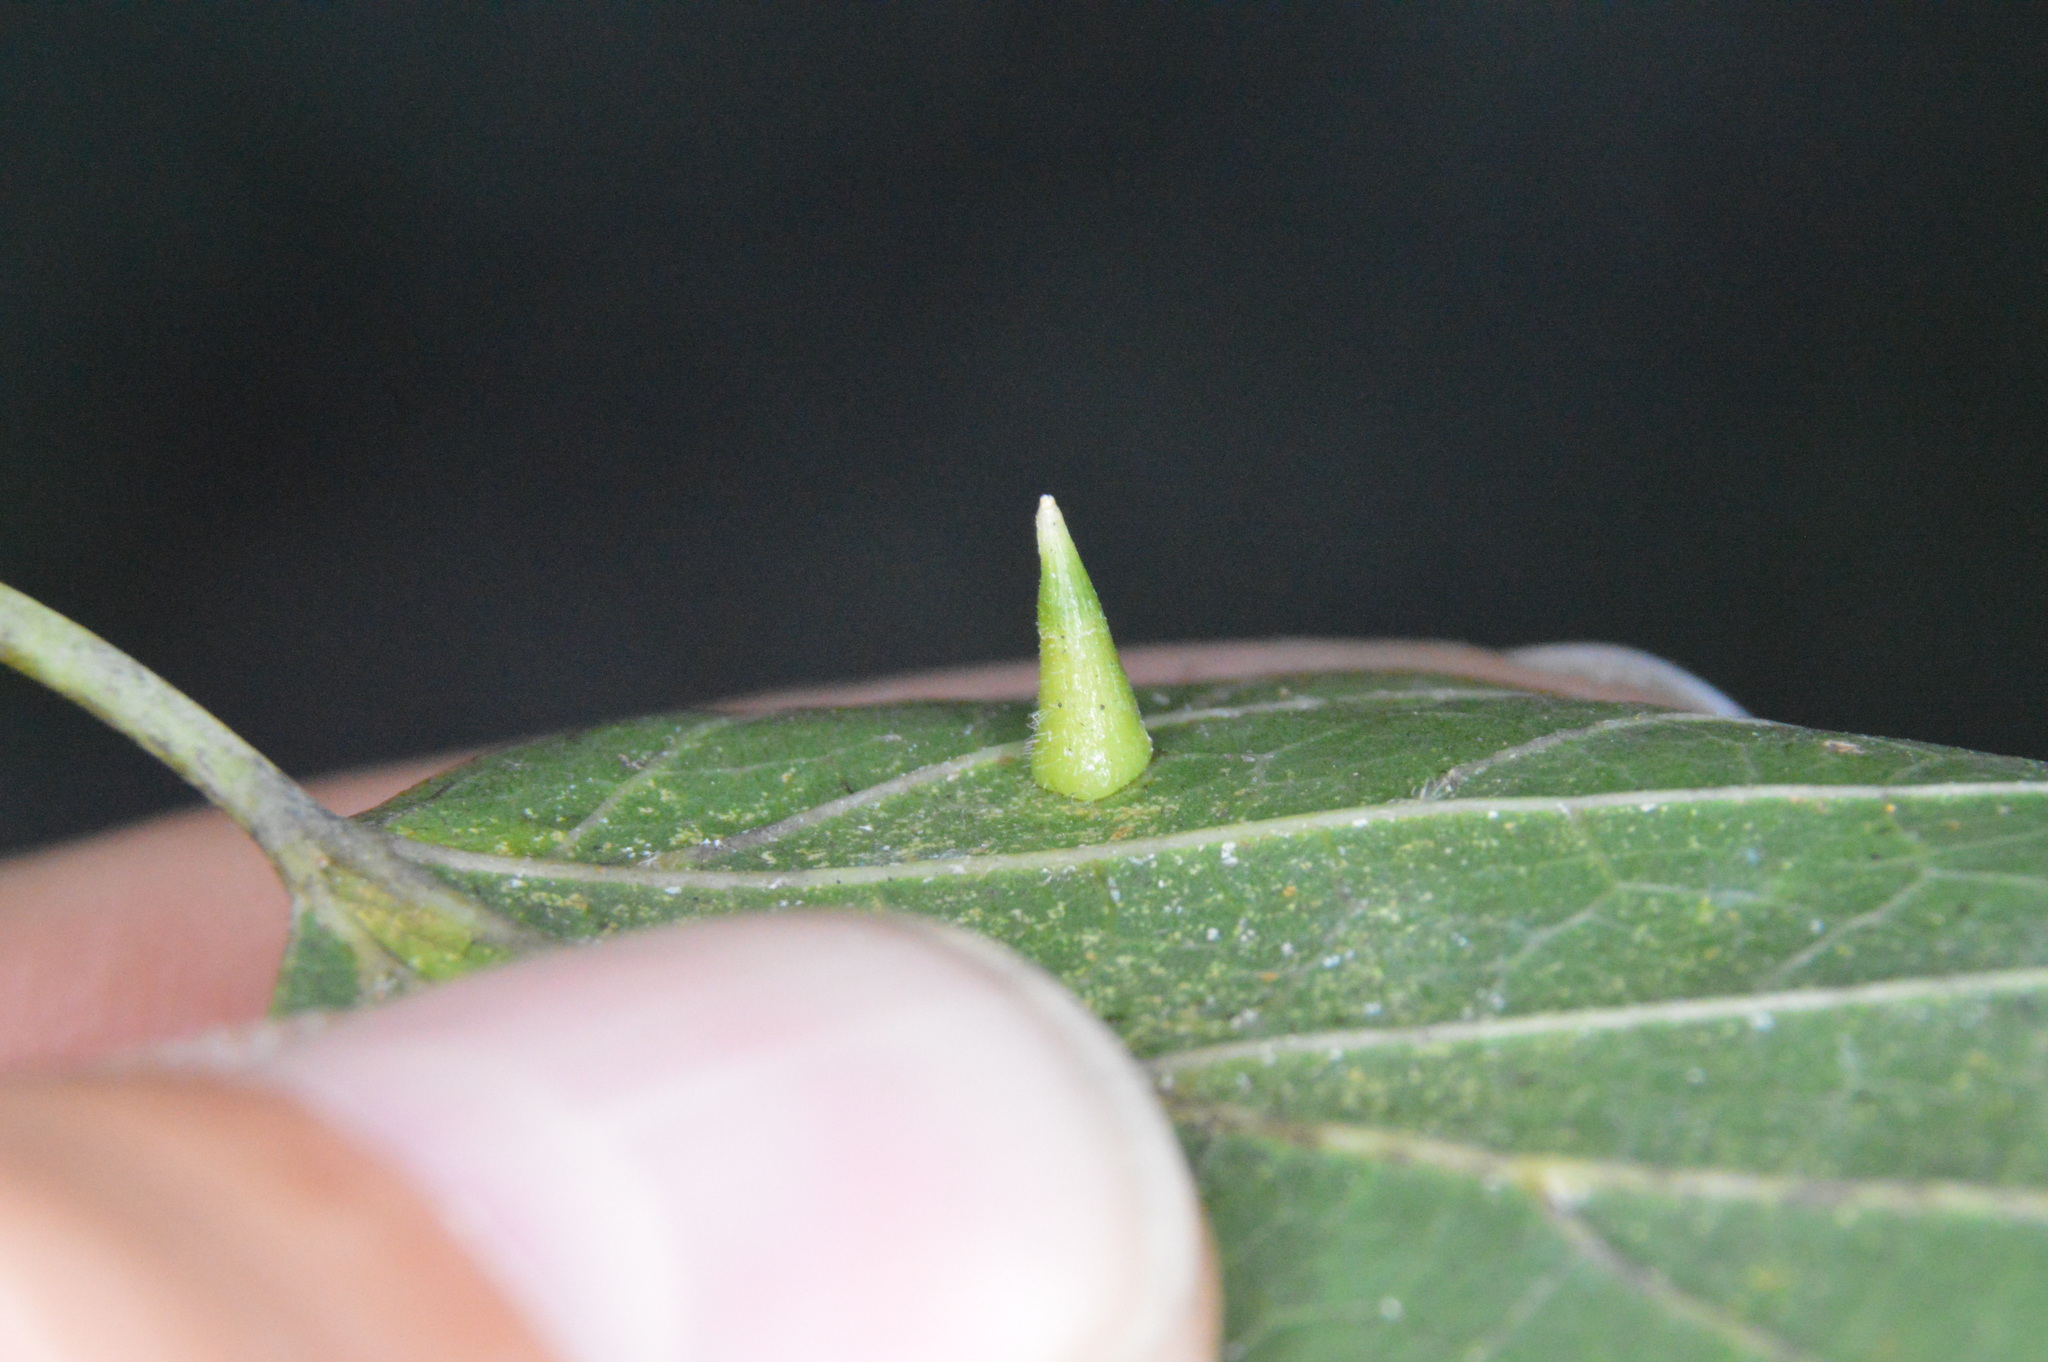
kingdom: Animalia
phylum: Arthropoda
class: Insecta
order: Diptera
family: Cecidomyiidae
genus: Celticecis
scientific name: Celticecis subulata
